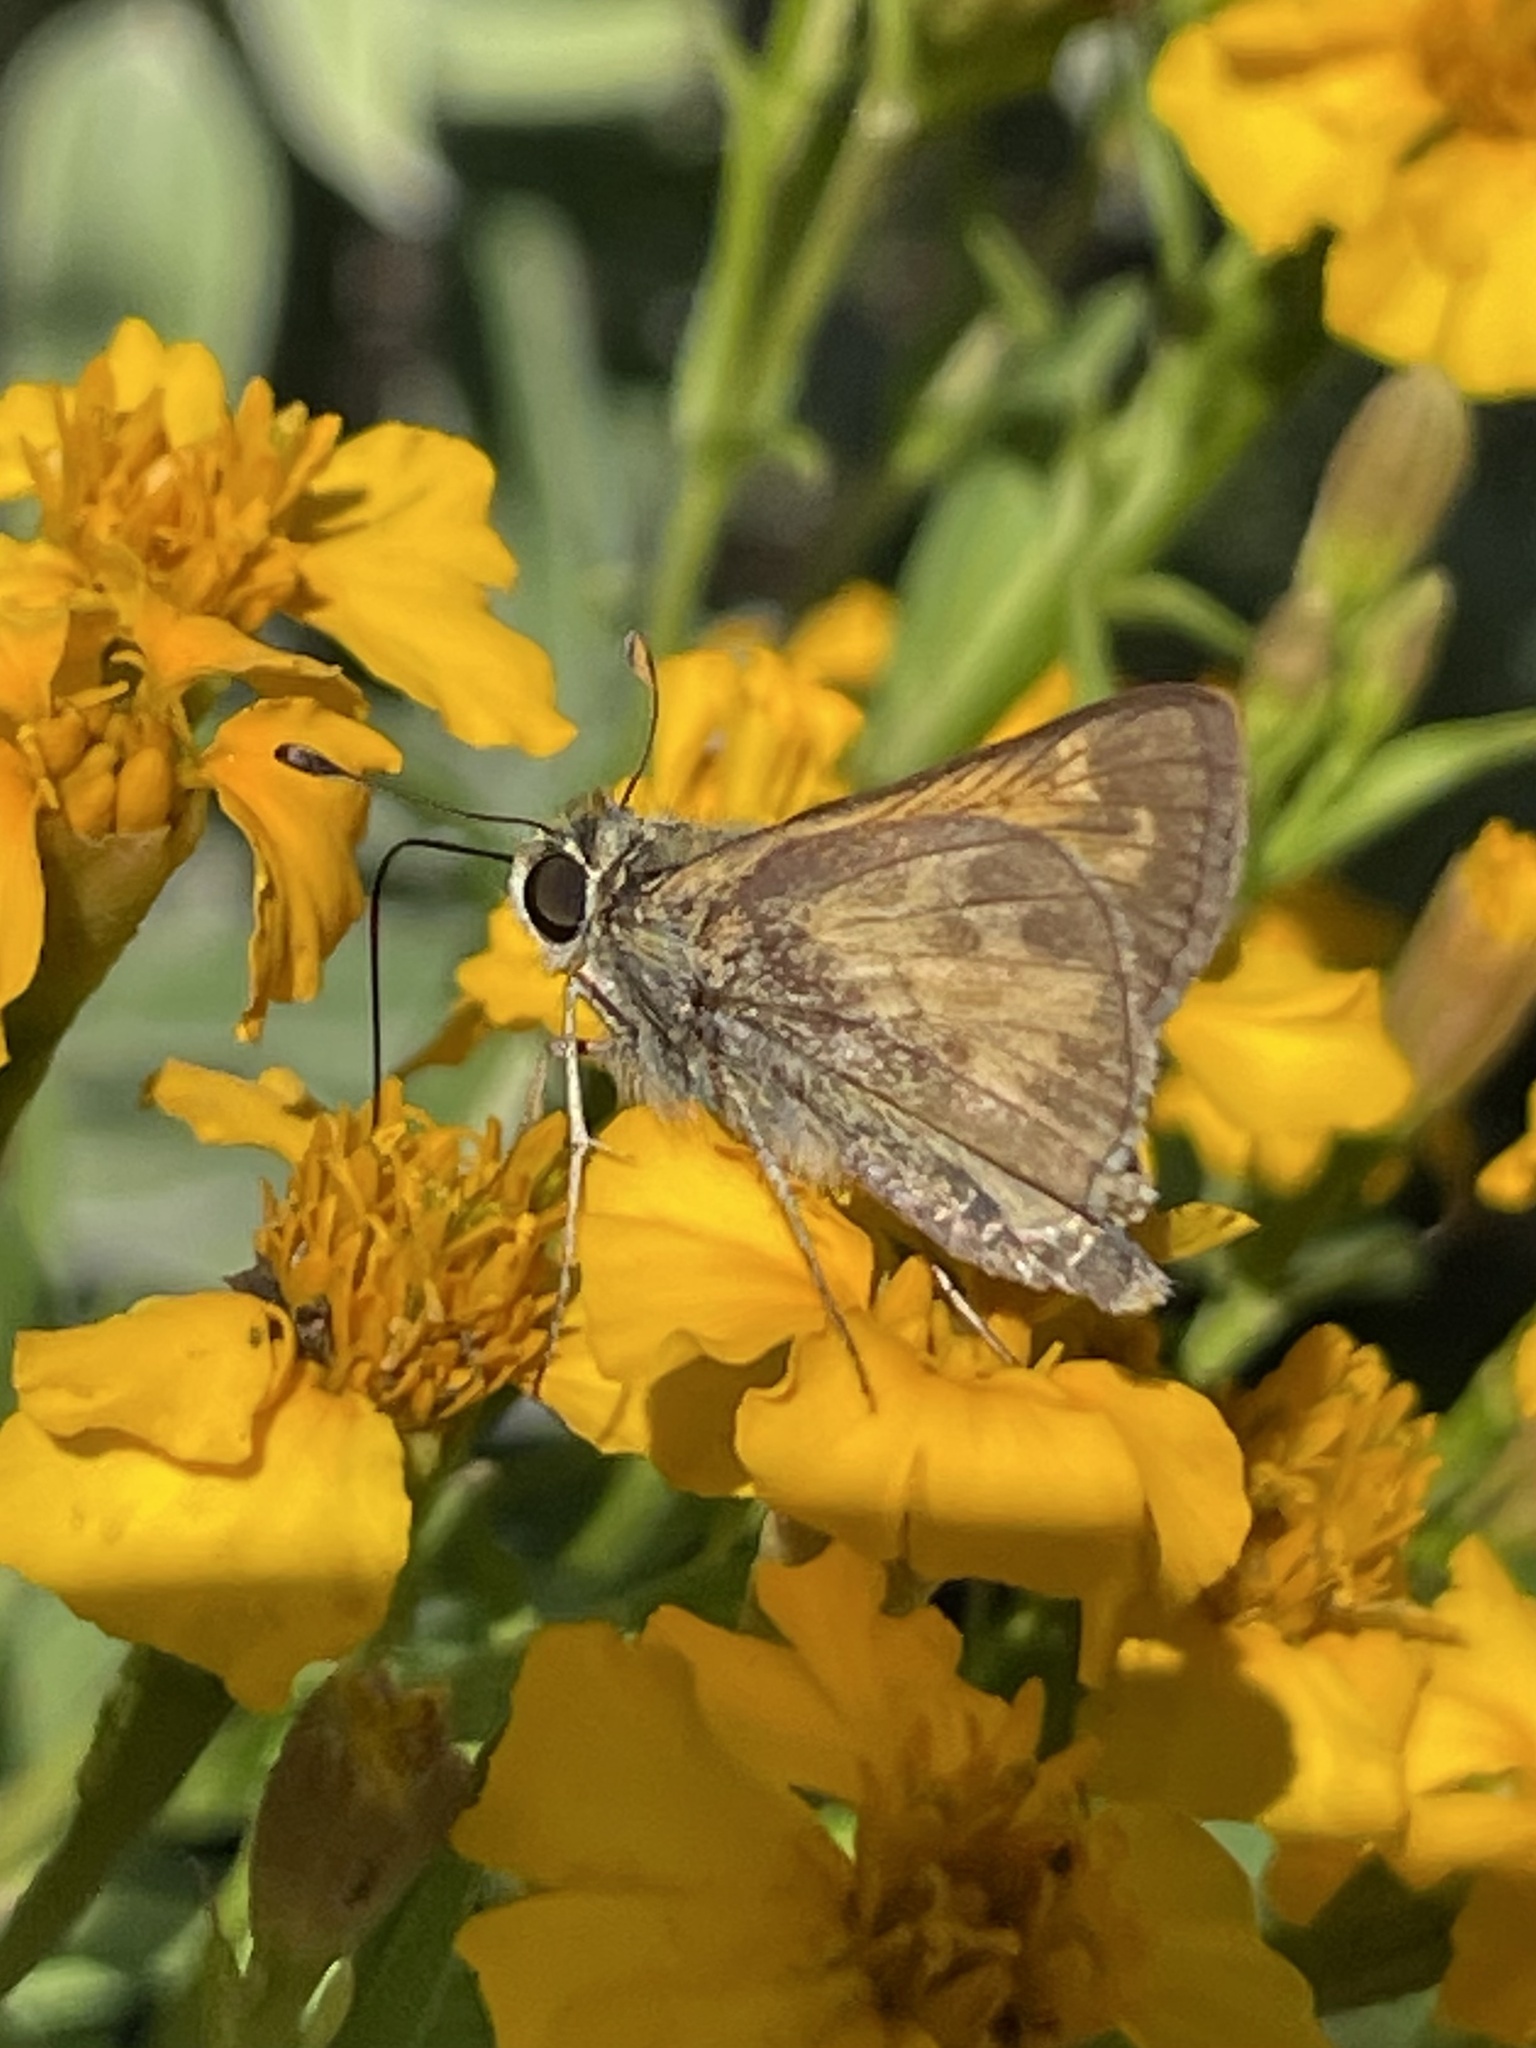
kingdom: Animalia
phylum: Arthropoda
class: Insecta
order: Lepidoptera
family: Hesperiidae
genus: Atalopedes
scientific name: Atalopedes
